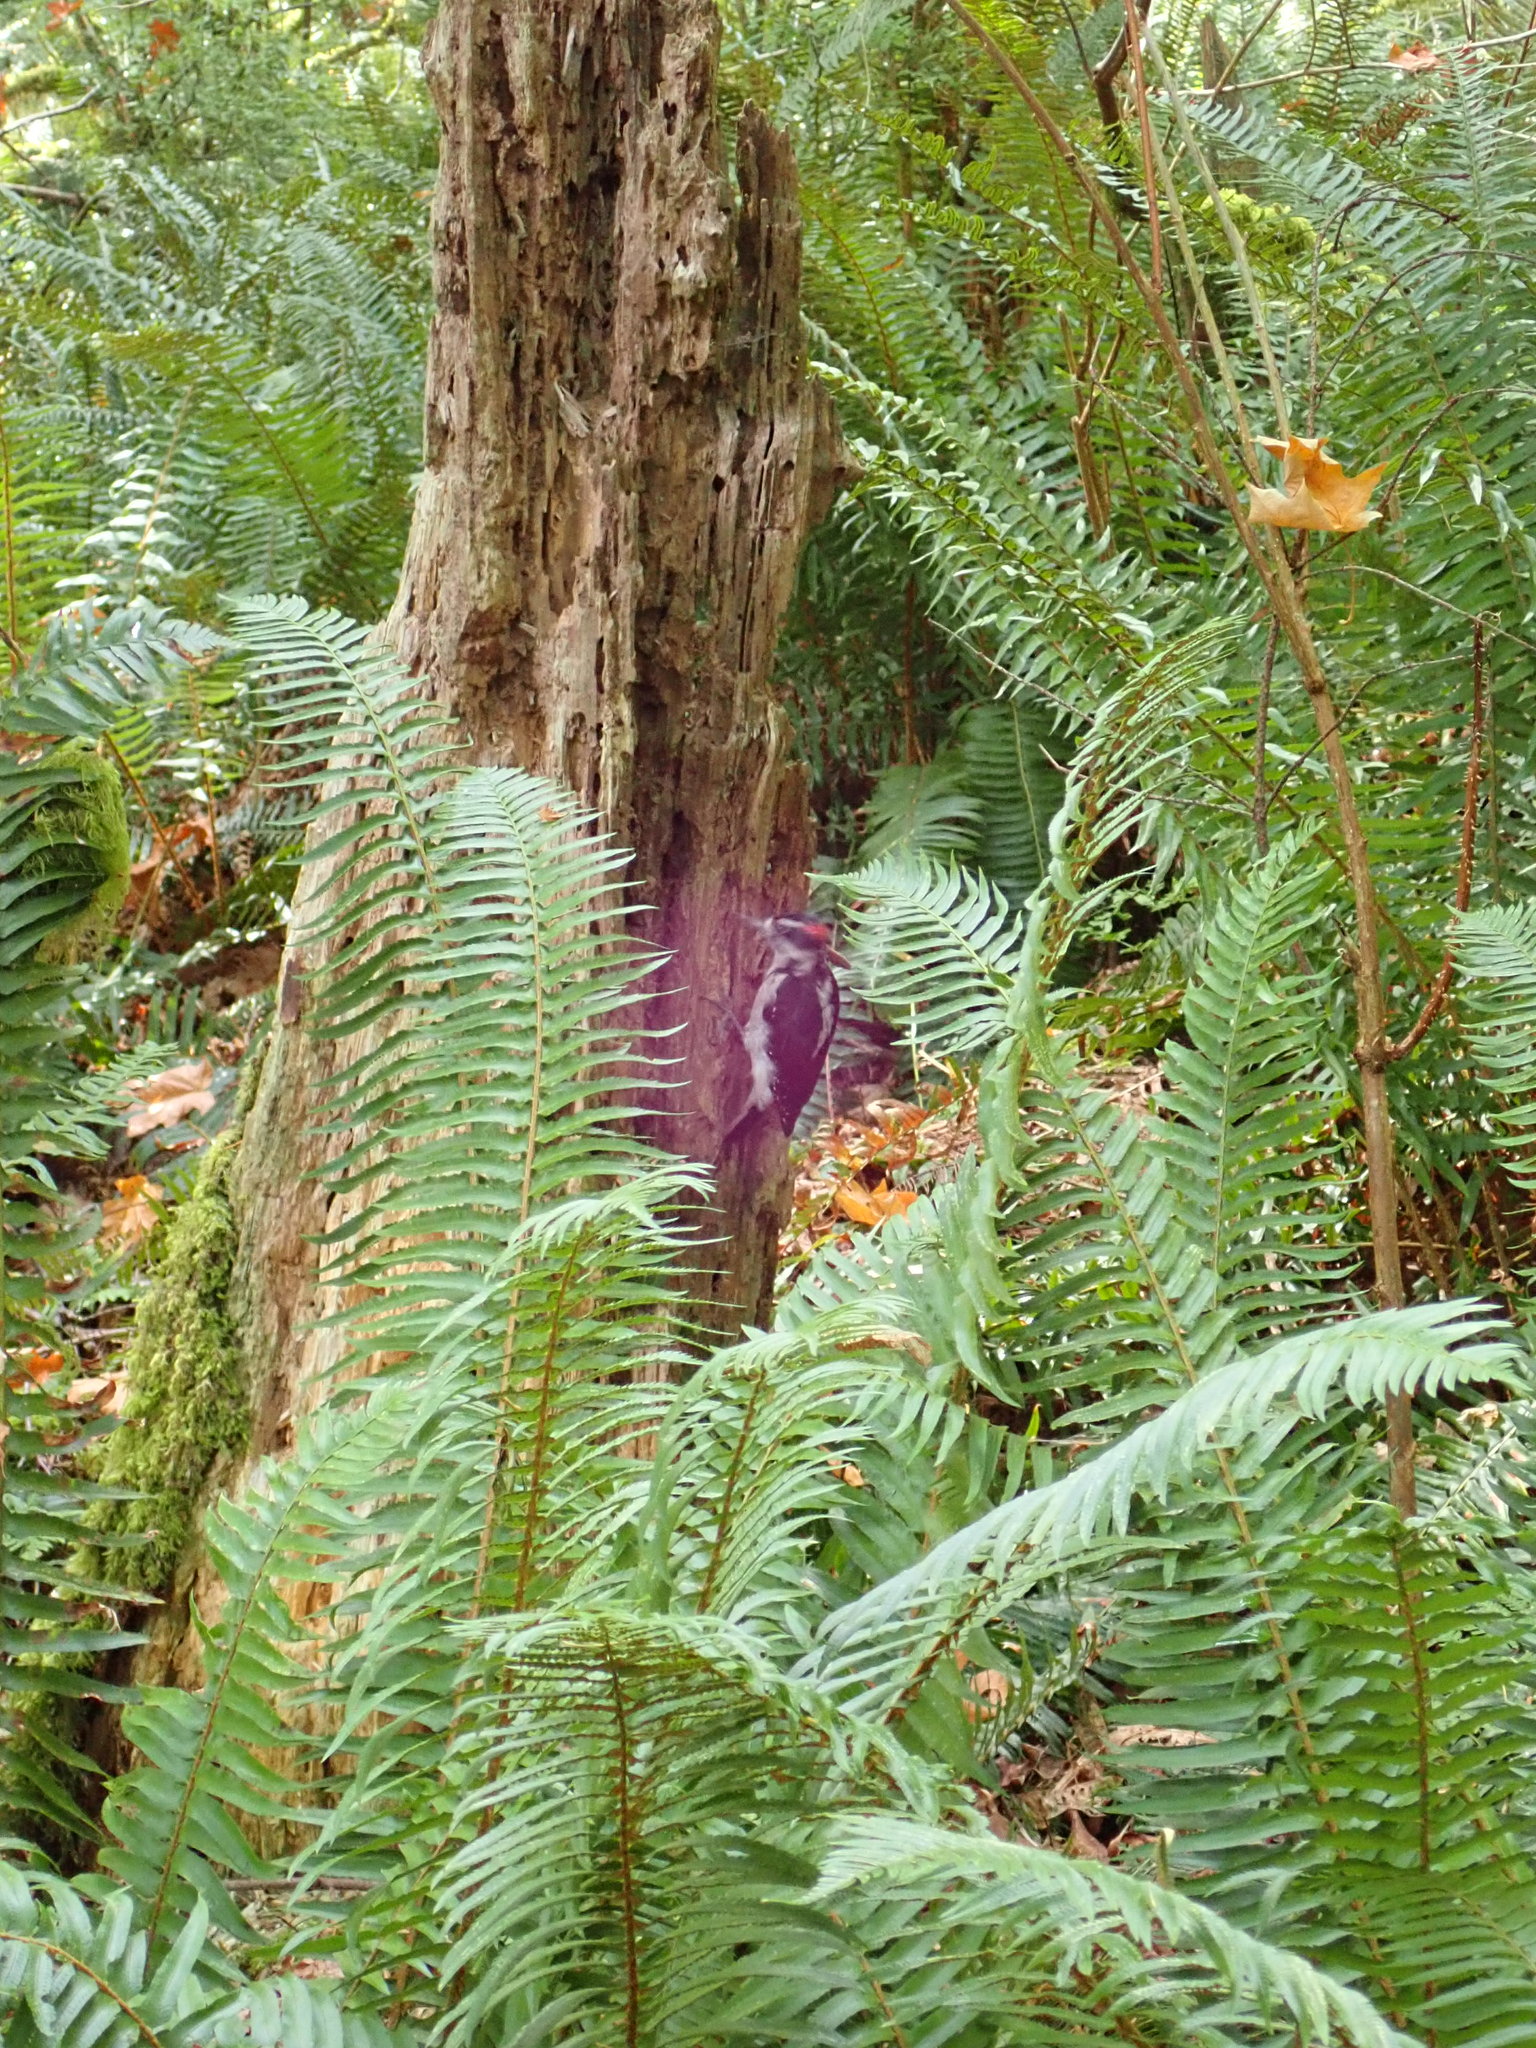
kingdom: Animalia
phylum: Chordata
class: Aves
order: Piciformes
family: Picidae
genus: Leuconotopicus
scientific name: Leuconotopicus villosus
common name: Hairy woodpecker
